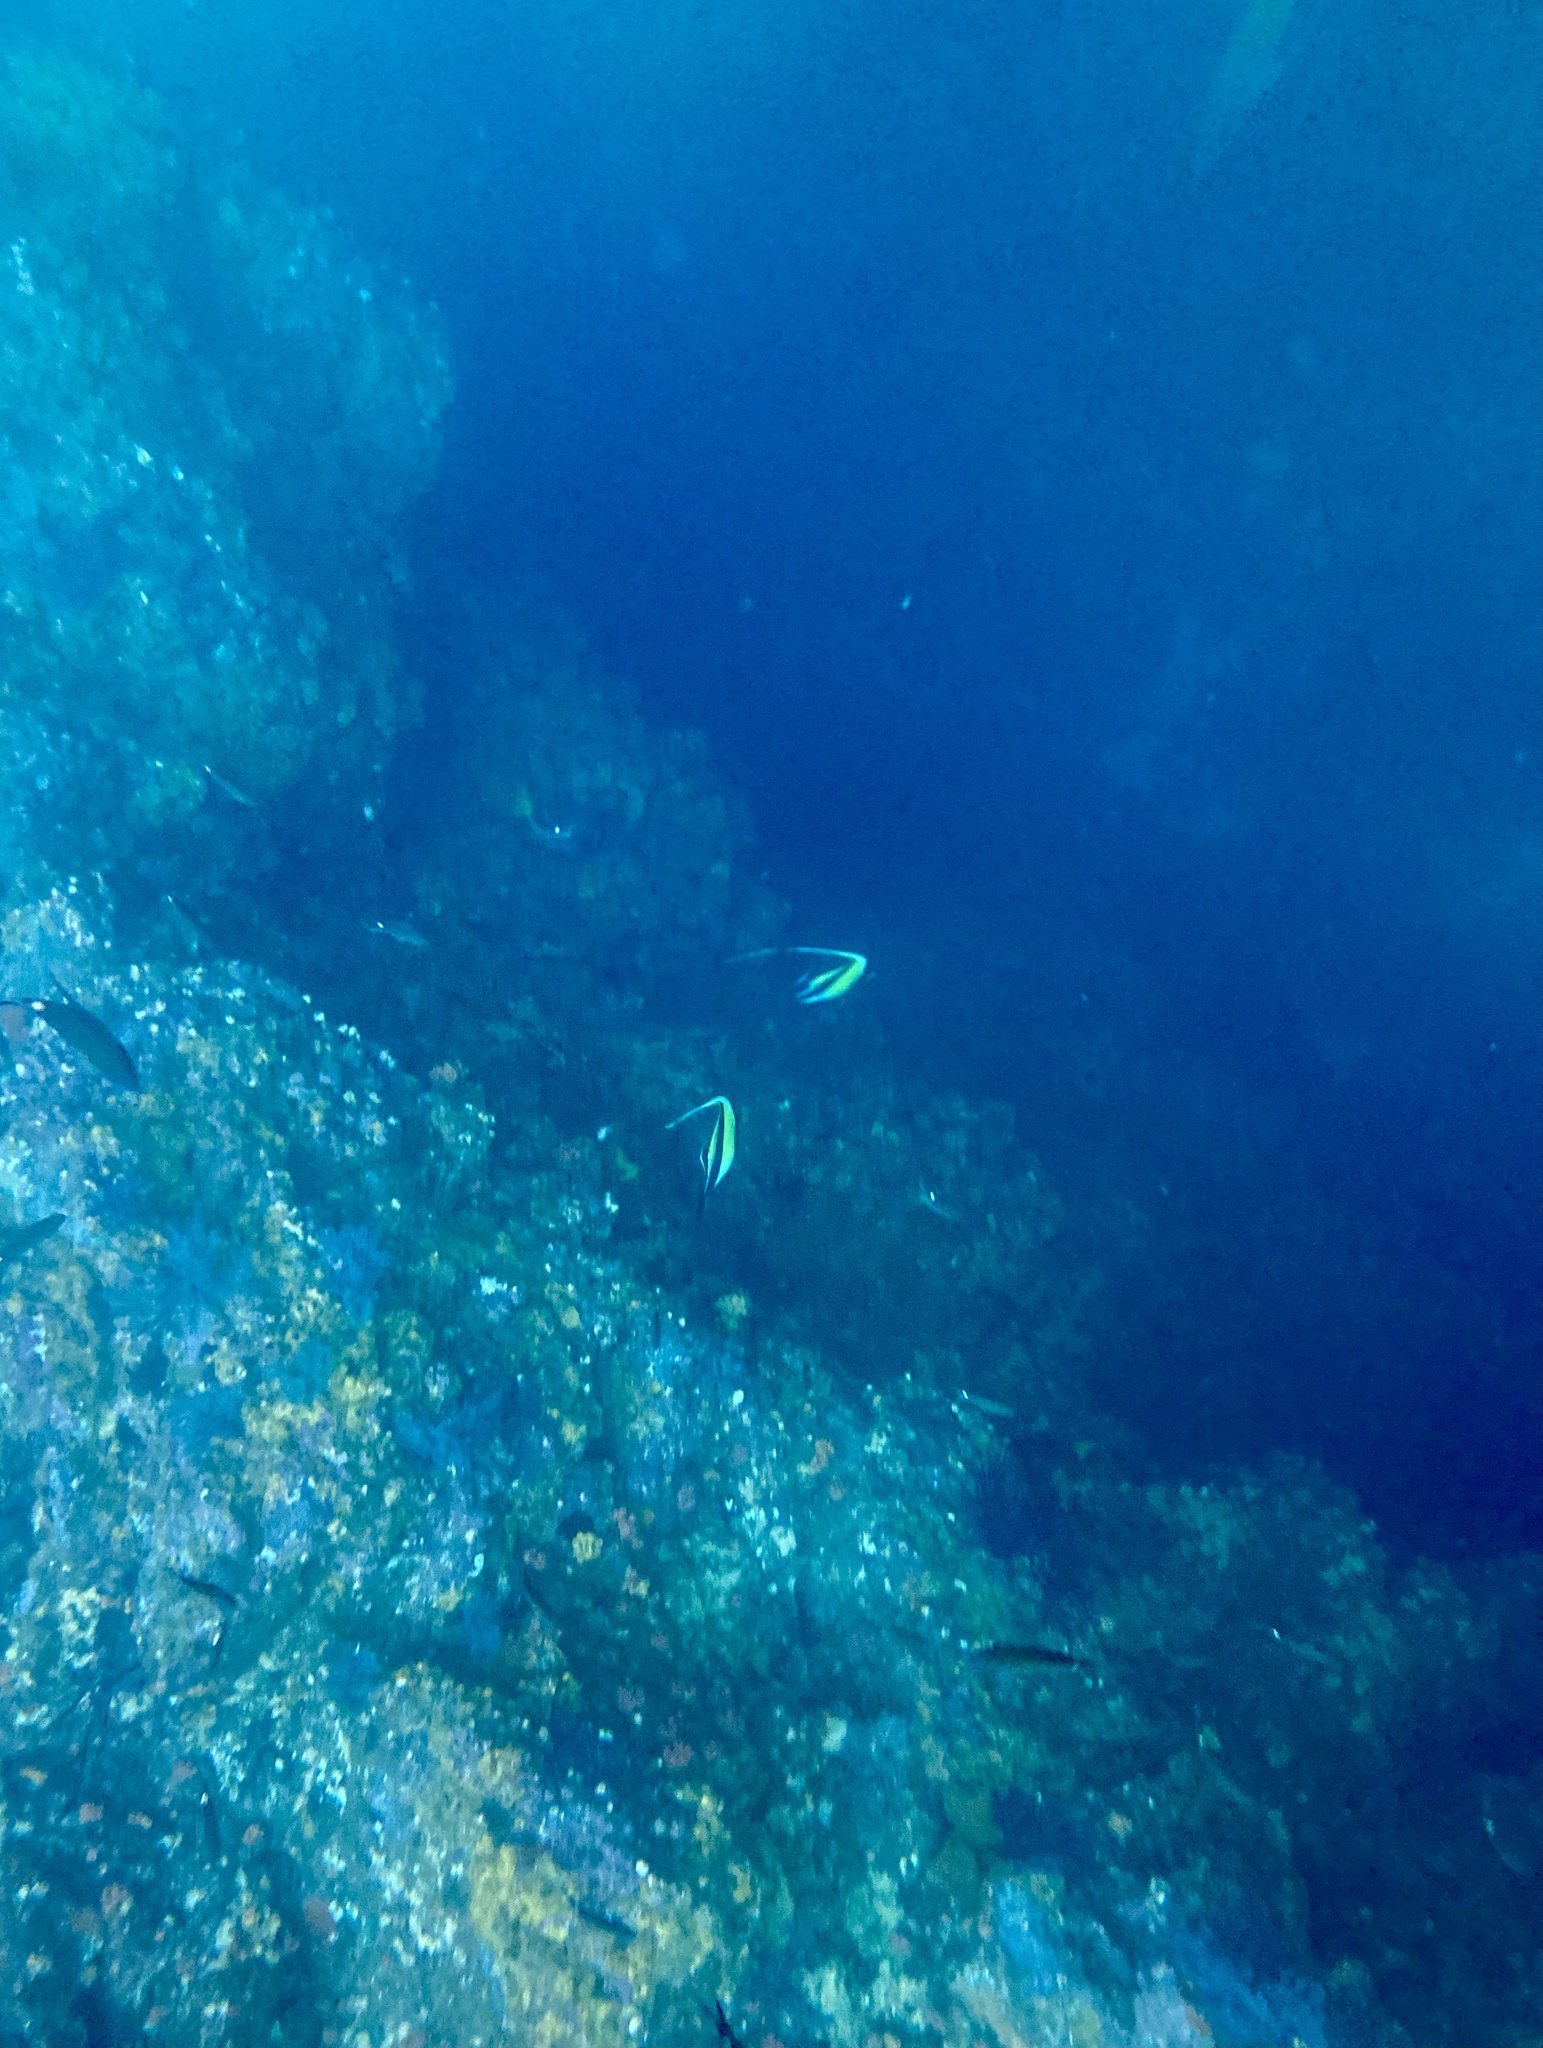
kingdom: Animalia
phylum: Chordata
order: Perciformes
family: Zanclidae
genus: Zanclus
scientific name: Zanclus cornutus
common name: Moorish idol
